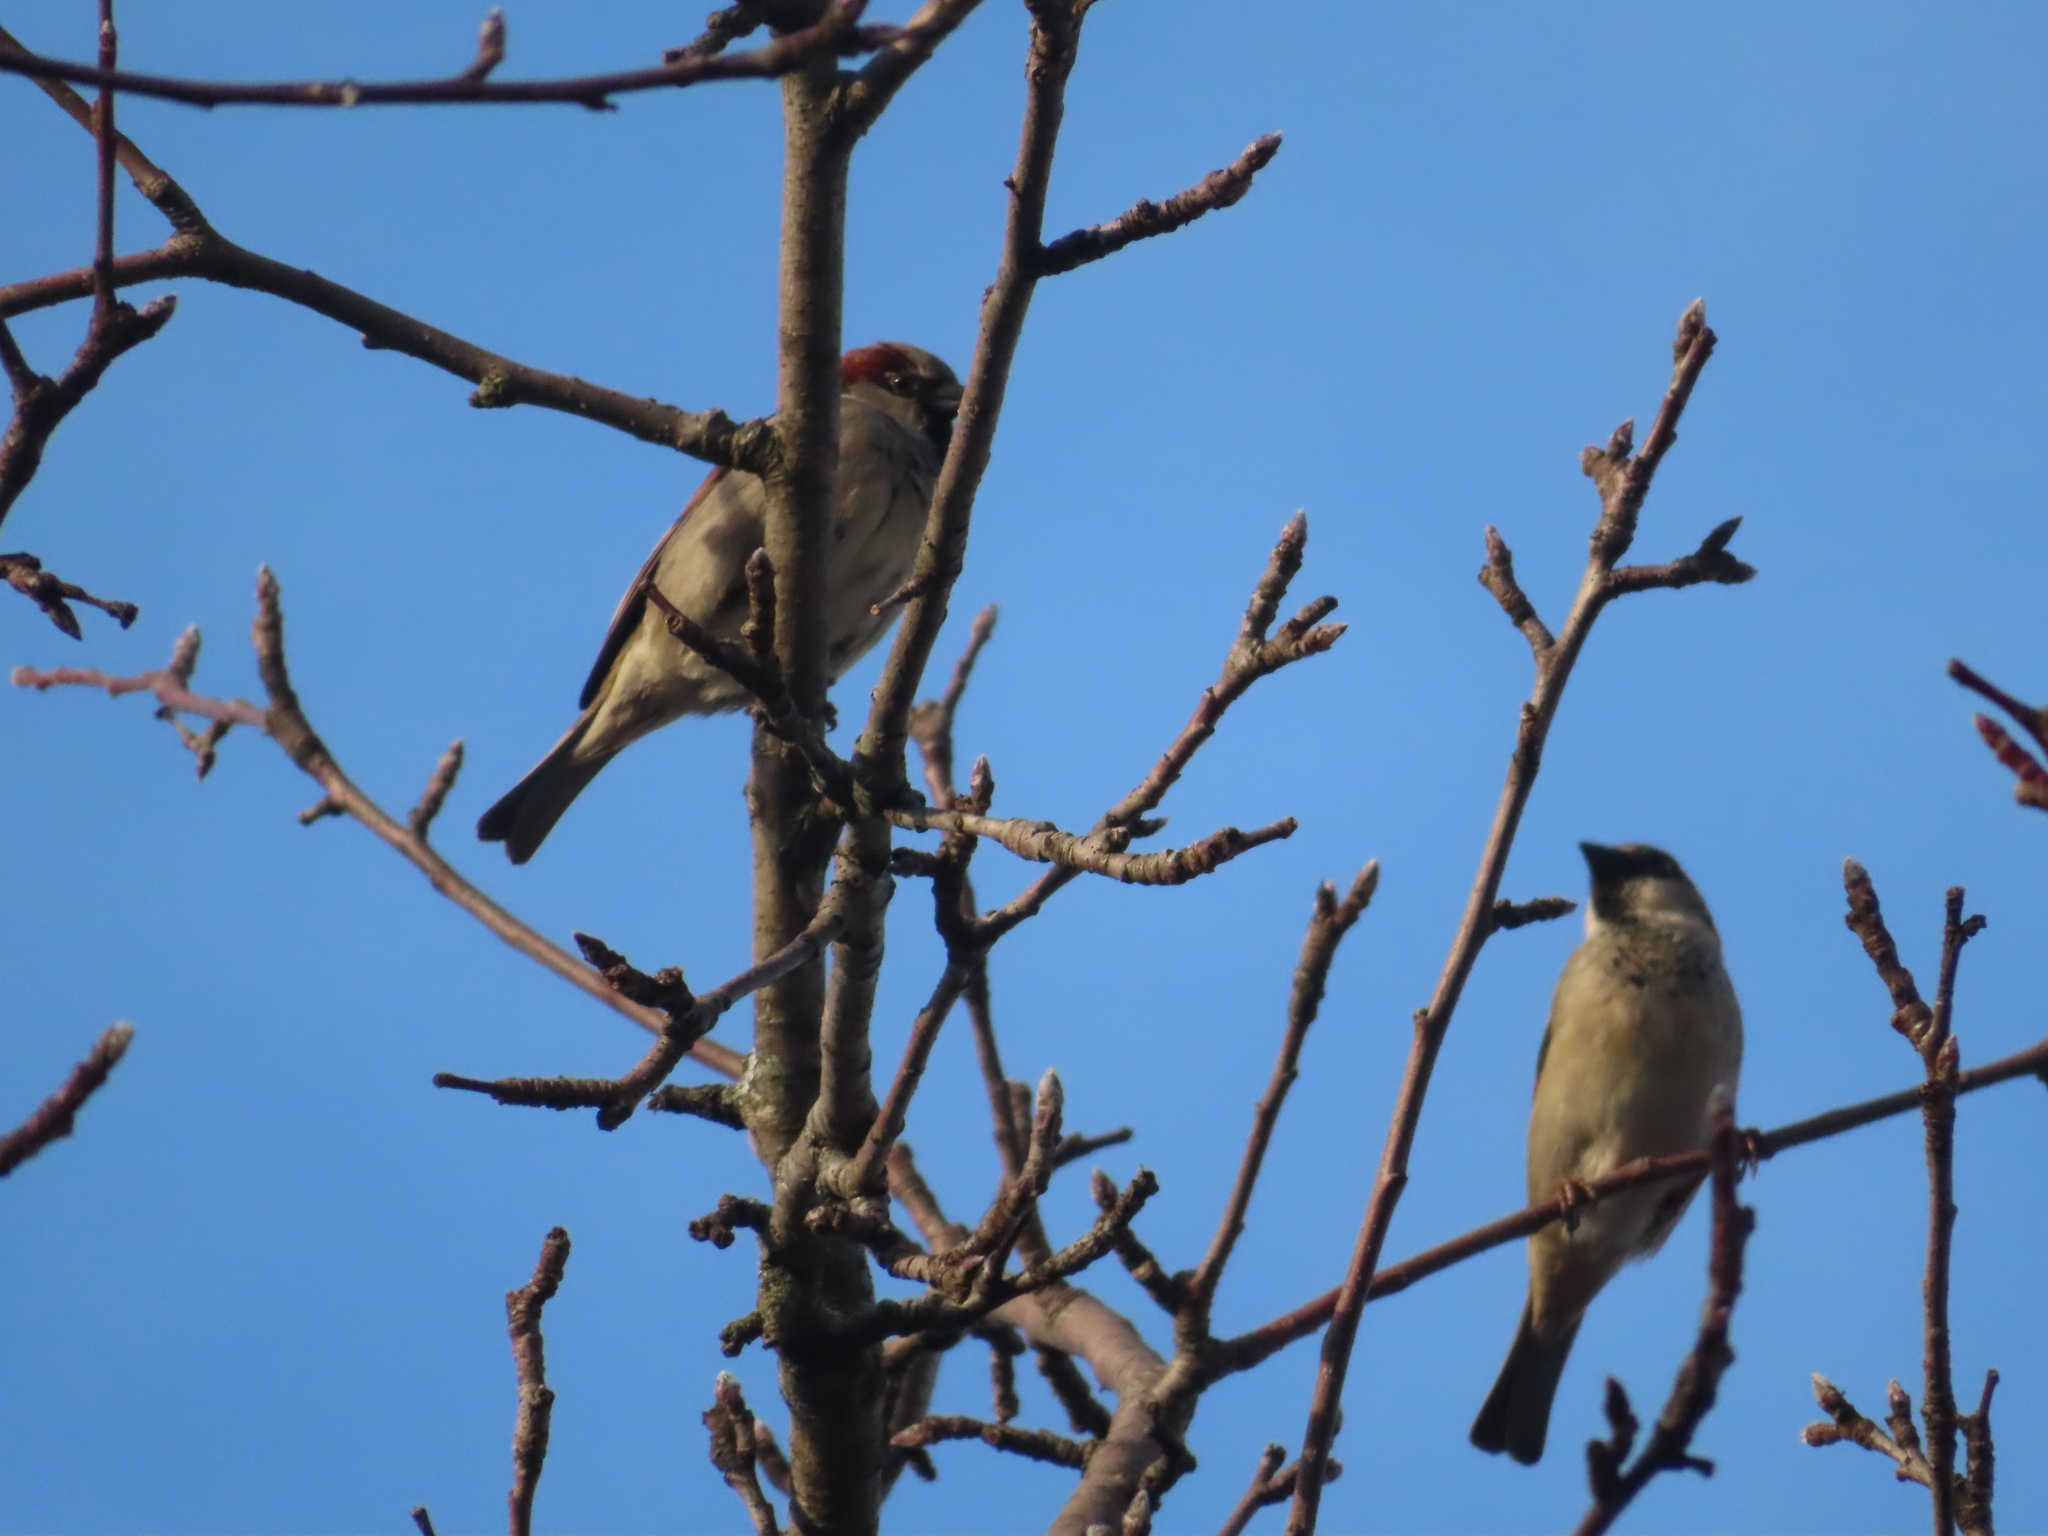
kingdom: Animalia
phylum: Chordata
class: Aves
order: Passeriformes
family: Passeridae
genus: Passer
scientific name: Passer domesticus
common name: House sparrow
